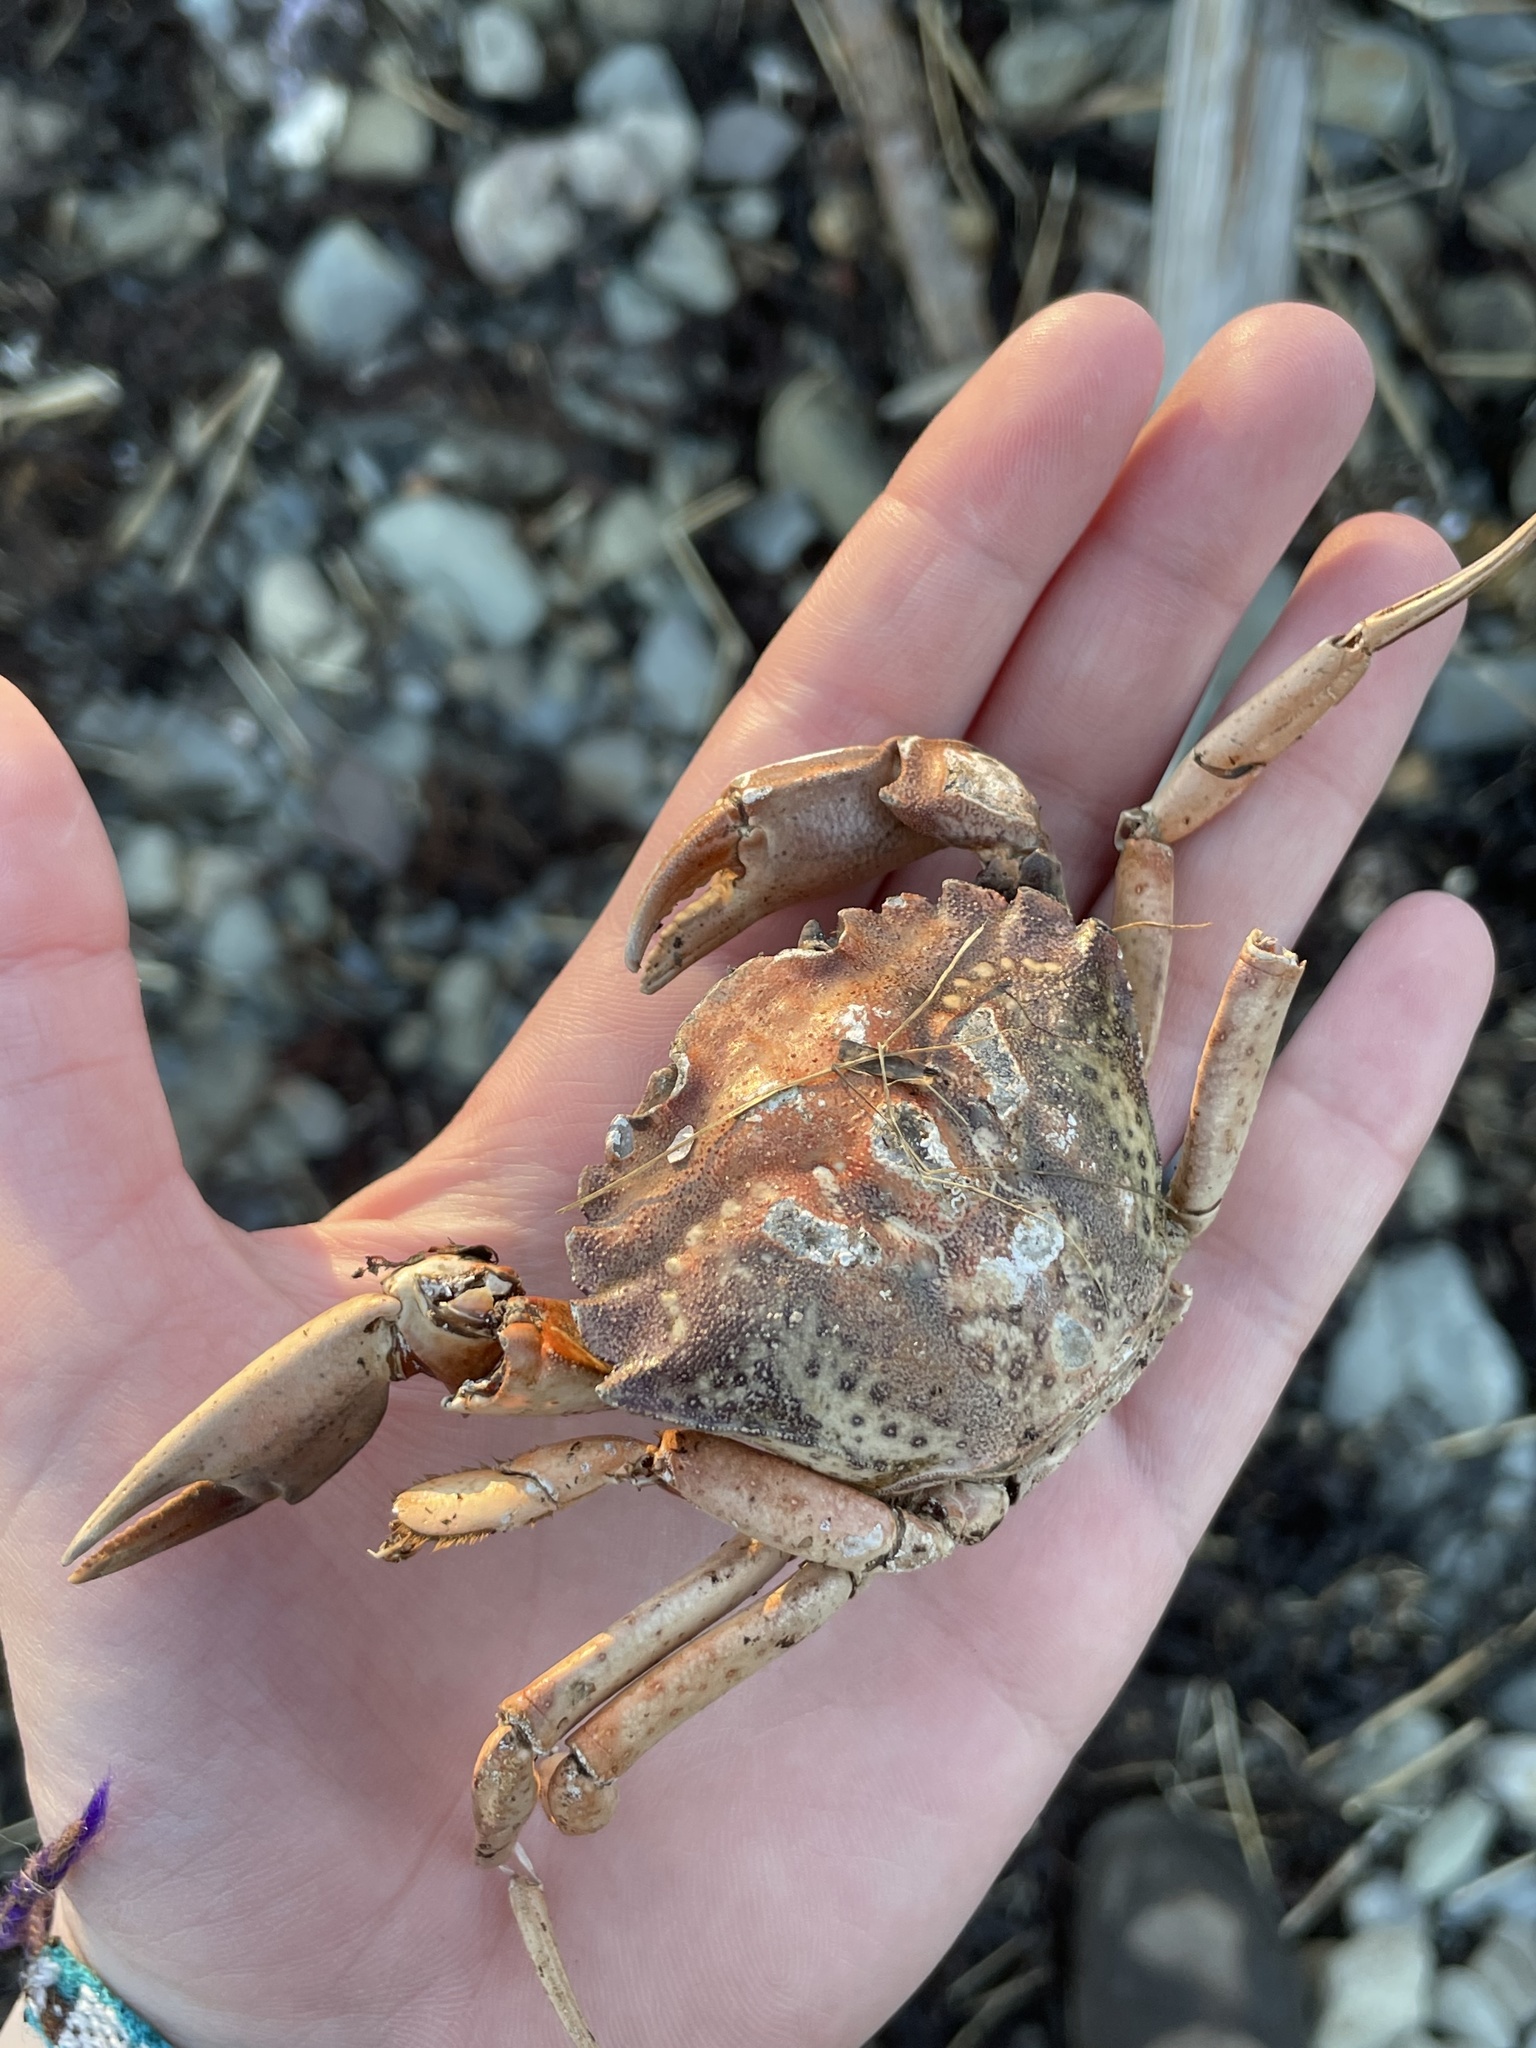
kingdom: Animalia
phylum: Arthropoda
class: Malacostraca
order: Decapoda
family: Carcinidae
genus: Carcinus
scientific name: Carcinus maenas
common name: European green crab
